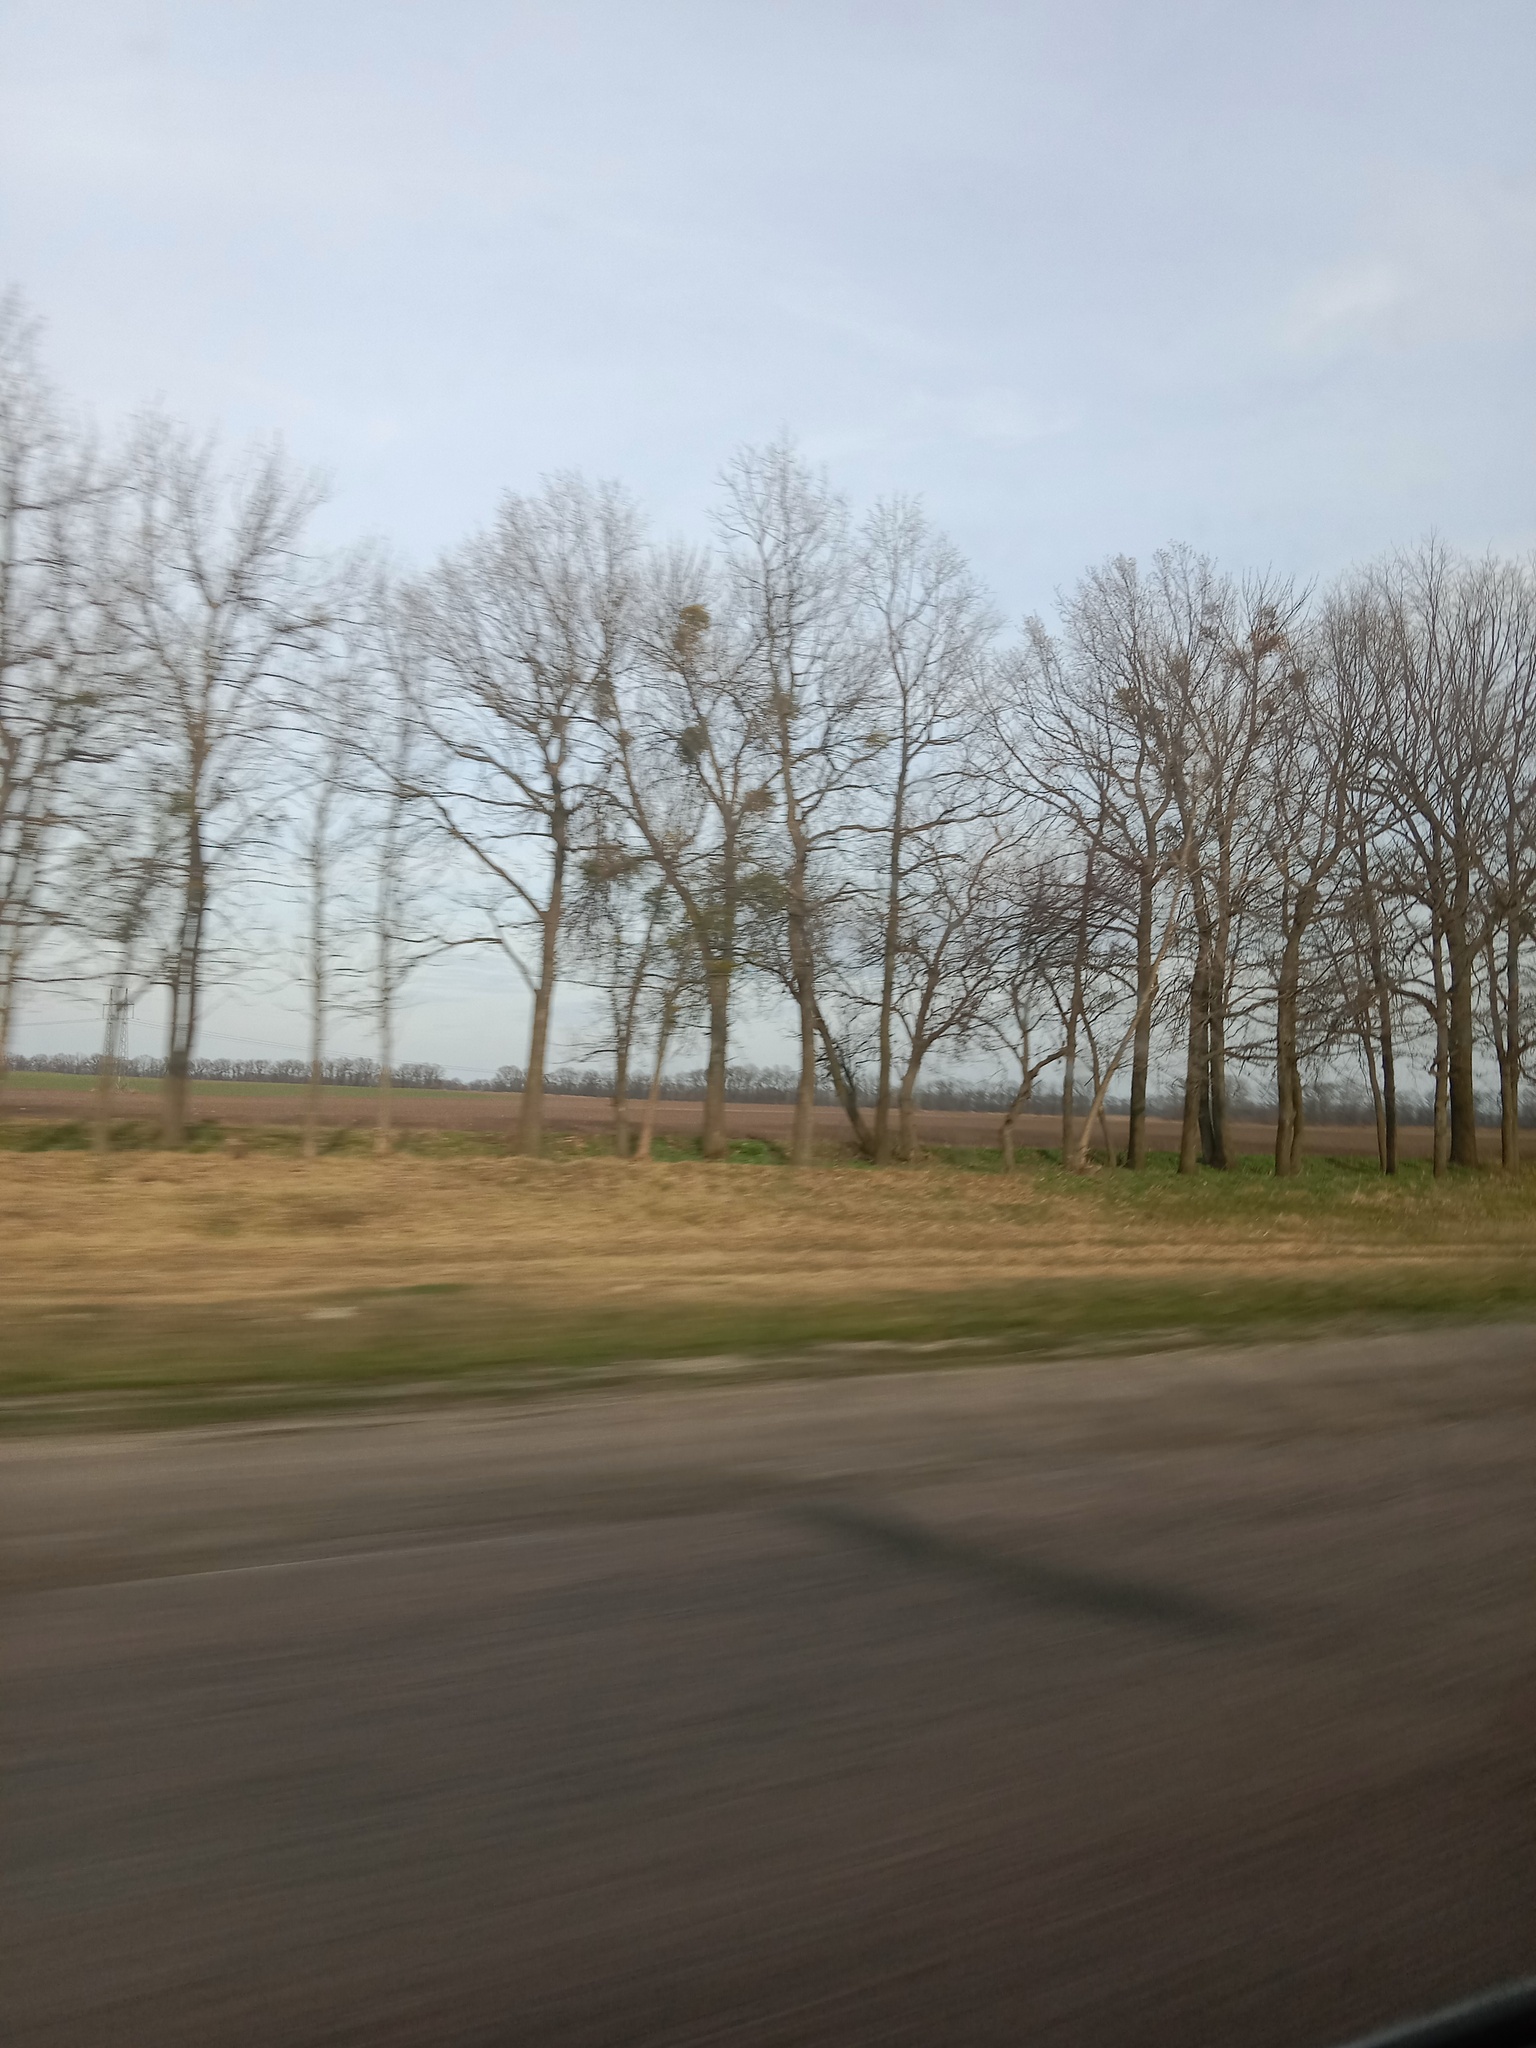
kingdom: Plantae
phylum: Tracheophyta
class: Magnoliopsida
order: Santalales
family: Viscaceae
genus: Viscum
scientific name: Viscum album
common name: Mistletoe
